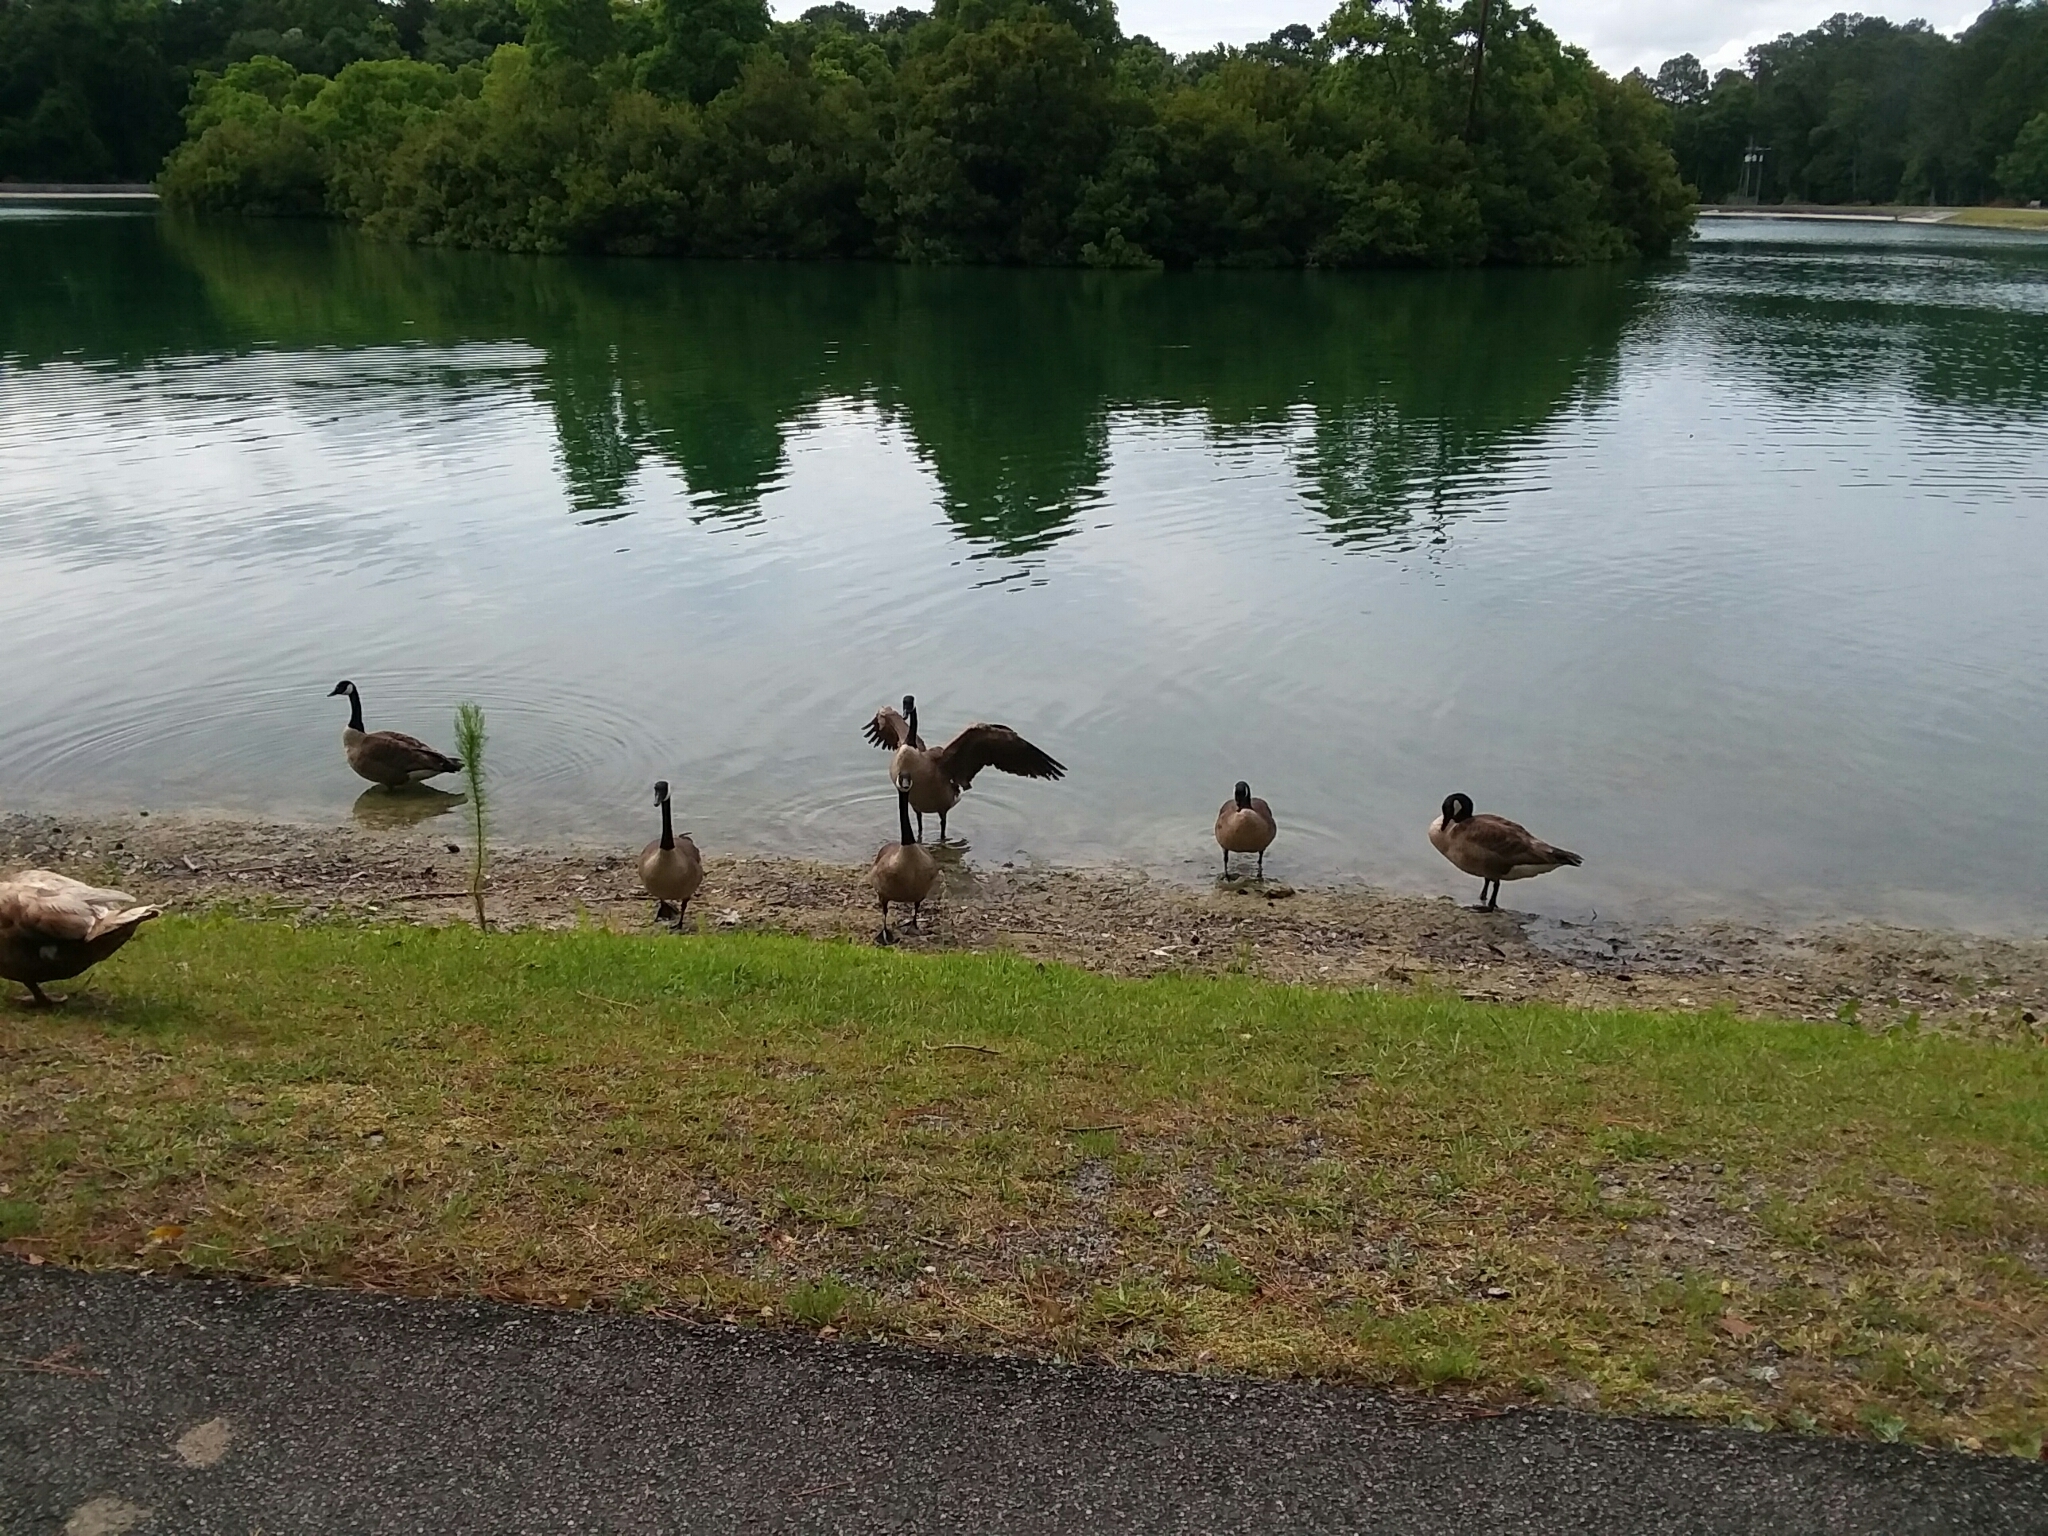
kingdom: Animalia
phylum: Chordata
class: Aves
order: Anseriformes
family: Anatidae
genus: Branta
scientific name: Branta canadensis
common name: Canada goose
